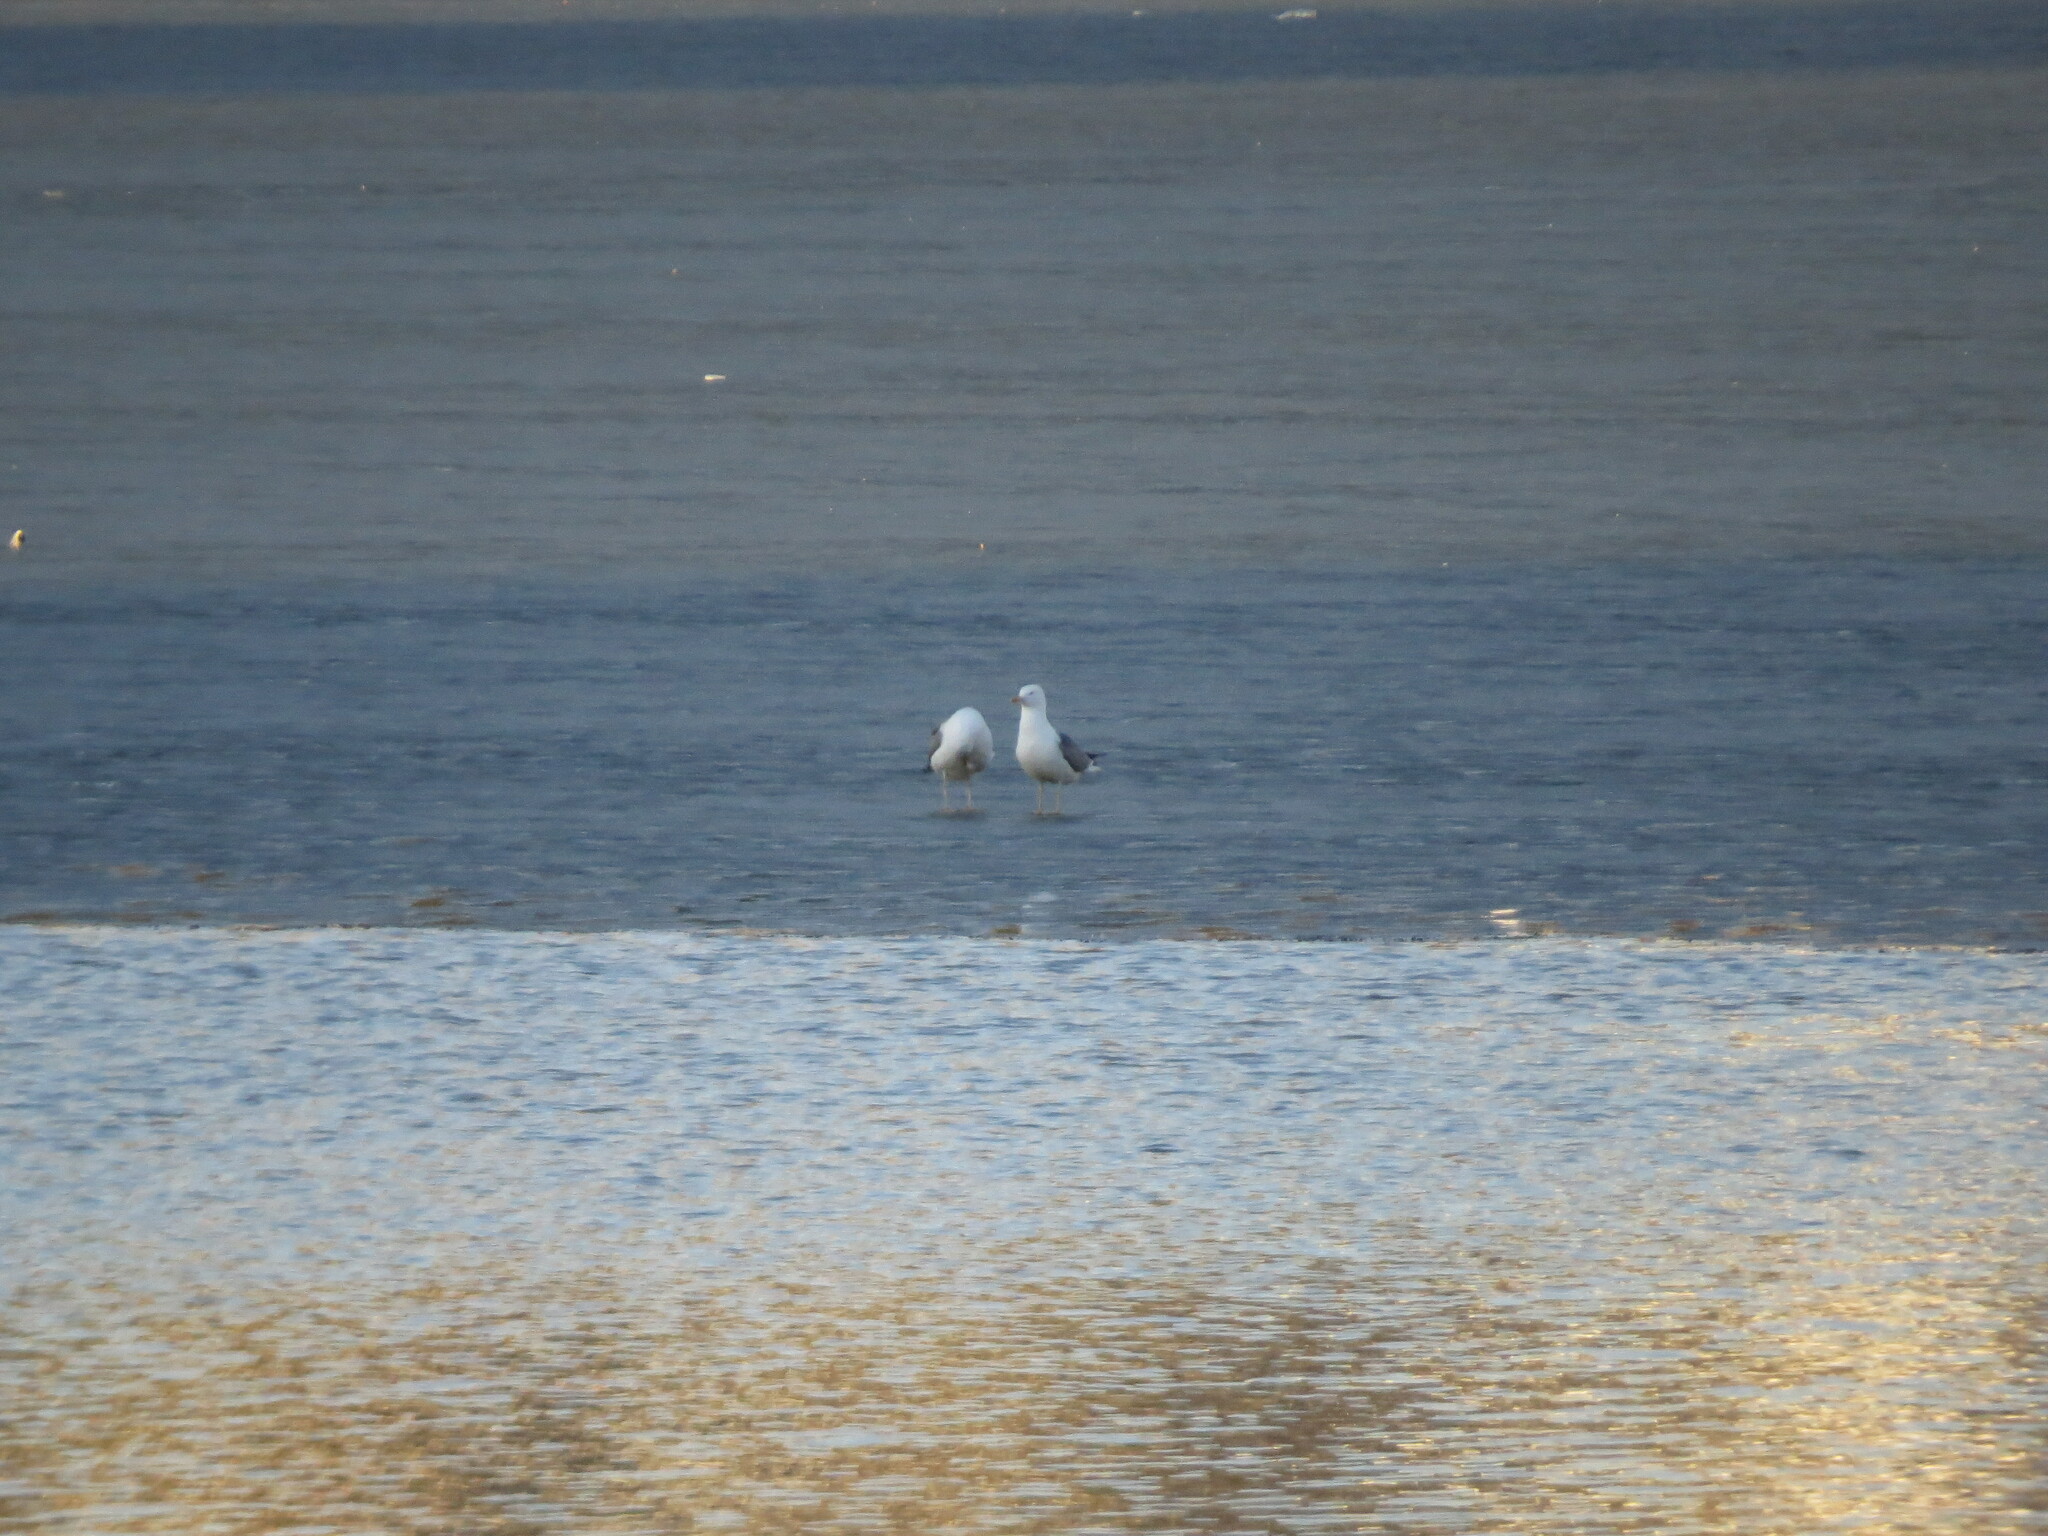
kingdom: Animalia
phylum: Chordata
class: Aves
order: Charadriiformes
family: Laridae
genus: Larus
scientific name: Larus fuscus
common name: Lesser black-backed gull
